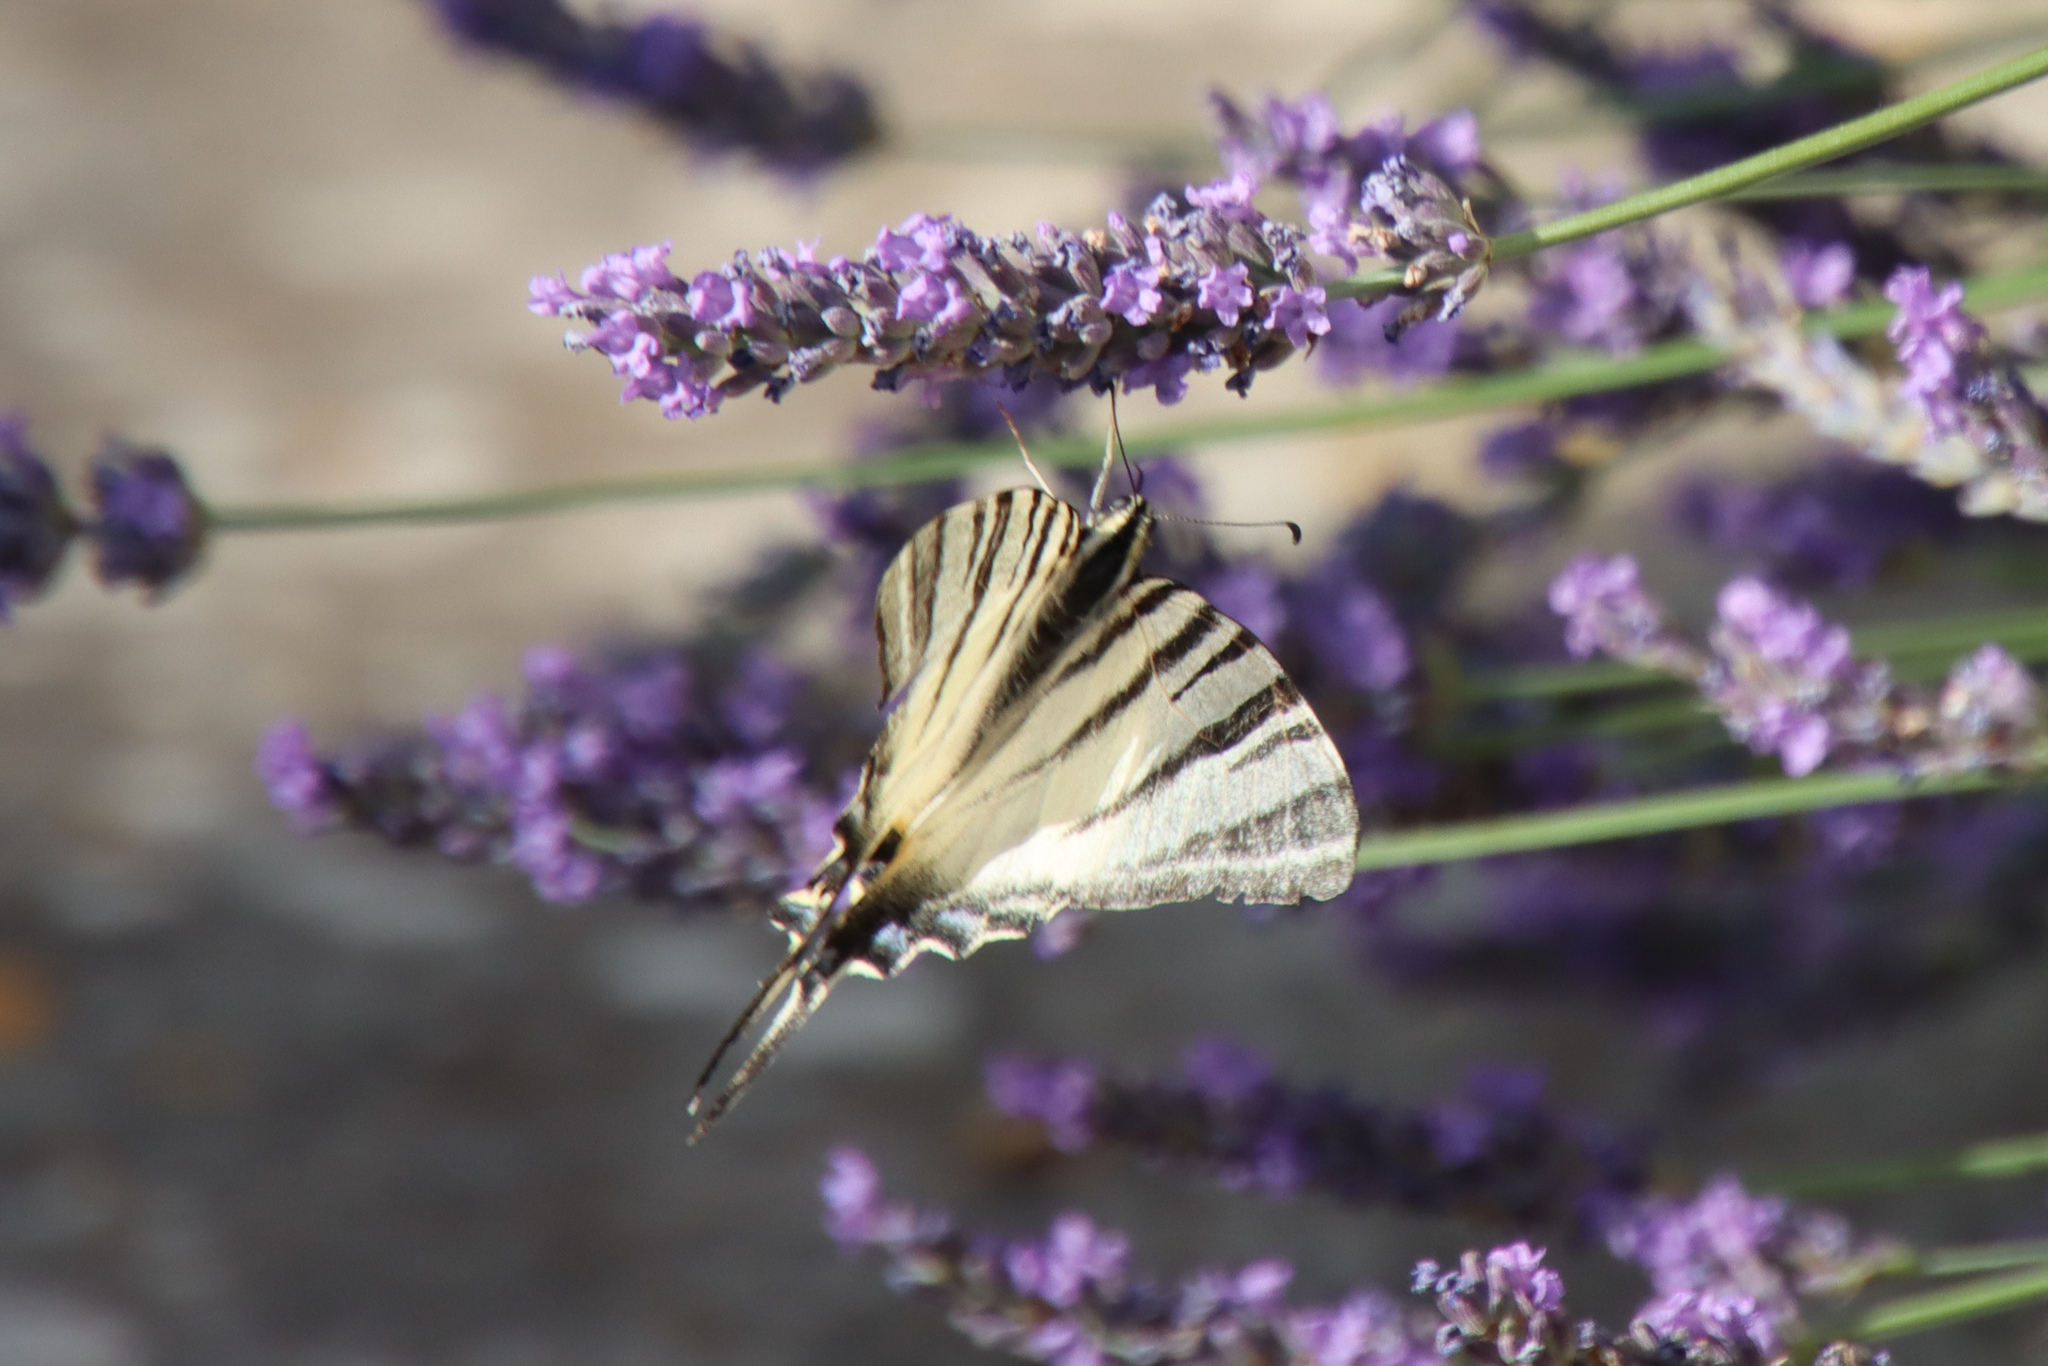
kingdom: Animalia
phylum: Arthropoda
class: Insecta
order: Lepidoptera
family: Papilionidae
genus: Iphiclides
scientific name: Iphiclides podalirius
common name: Scarce swallowtail
